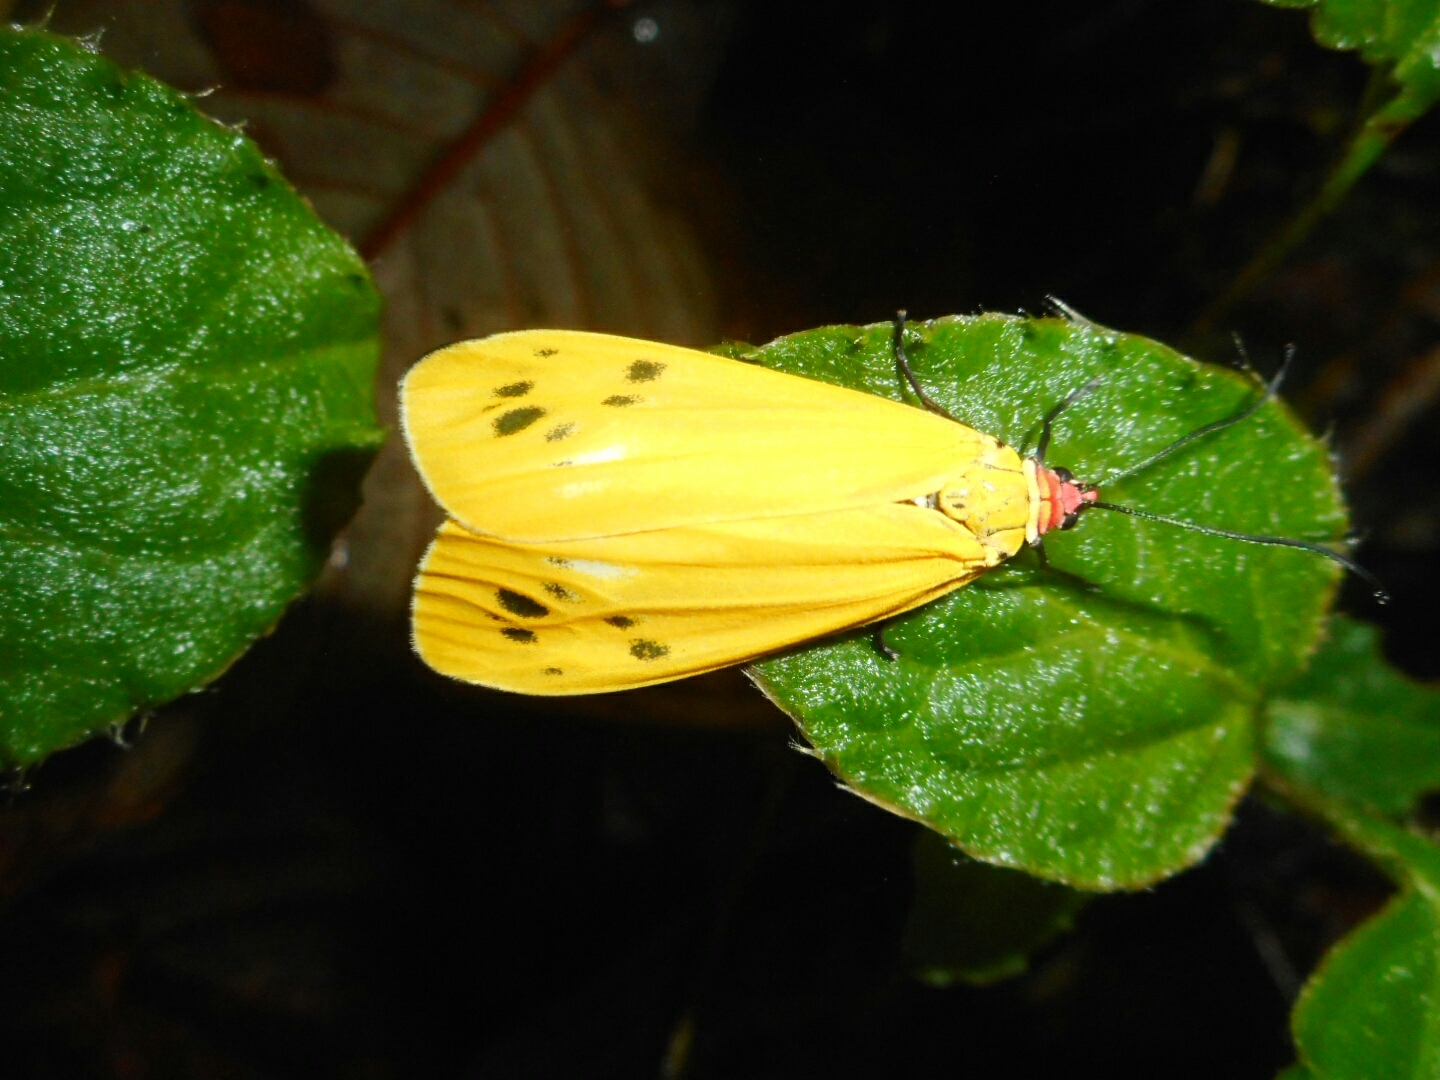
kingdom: Animalia
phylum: Arthropoda
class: Insecta
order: Lepidoptera
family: Zygaenidae
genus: Soritia
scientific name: Soritia
